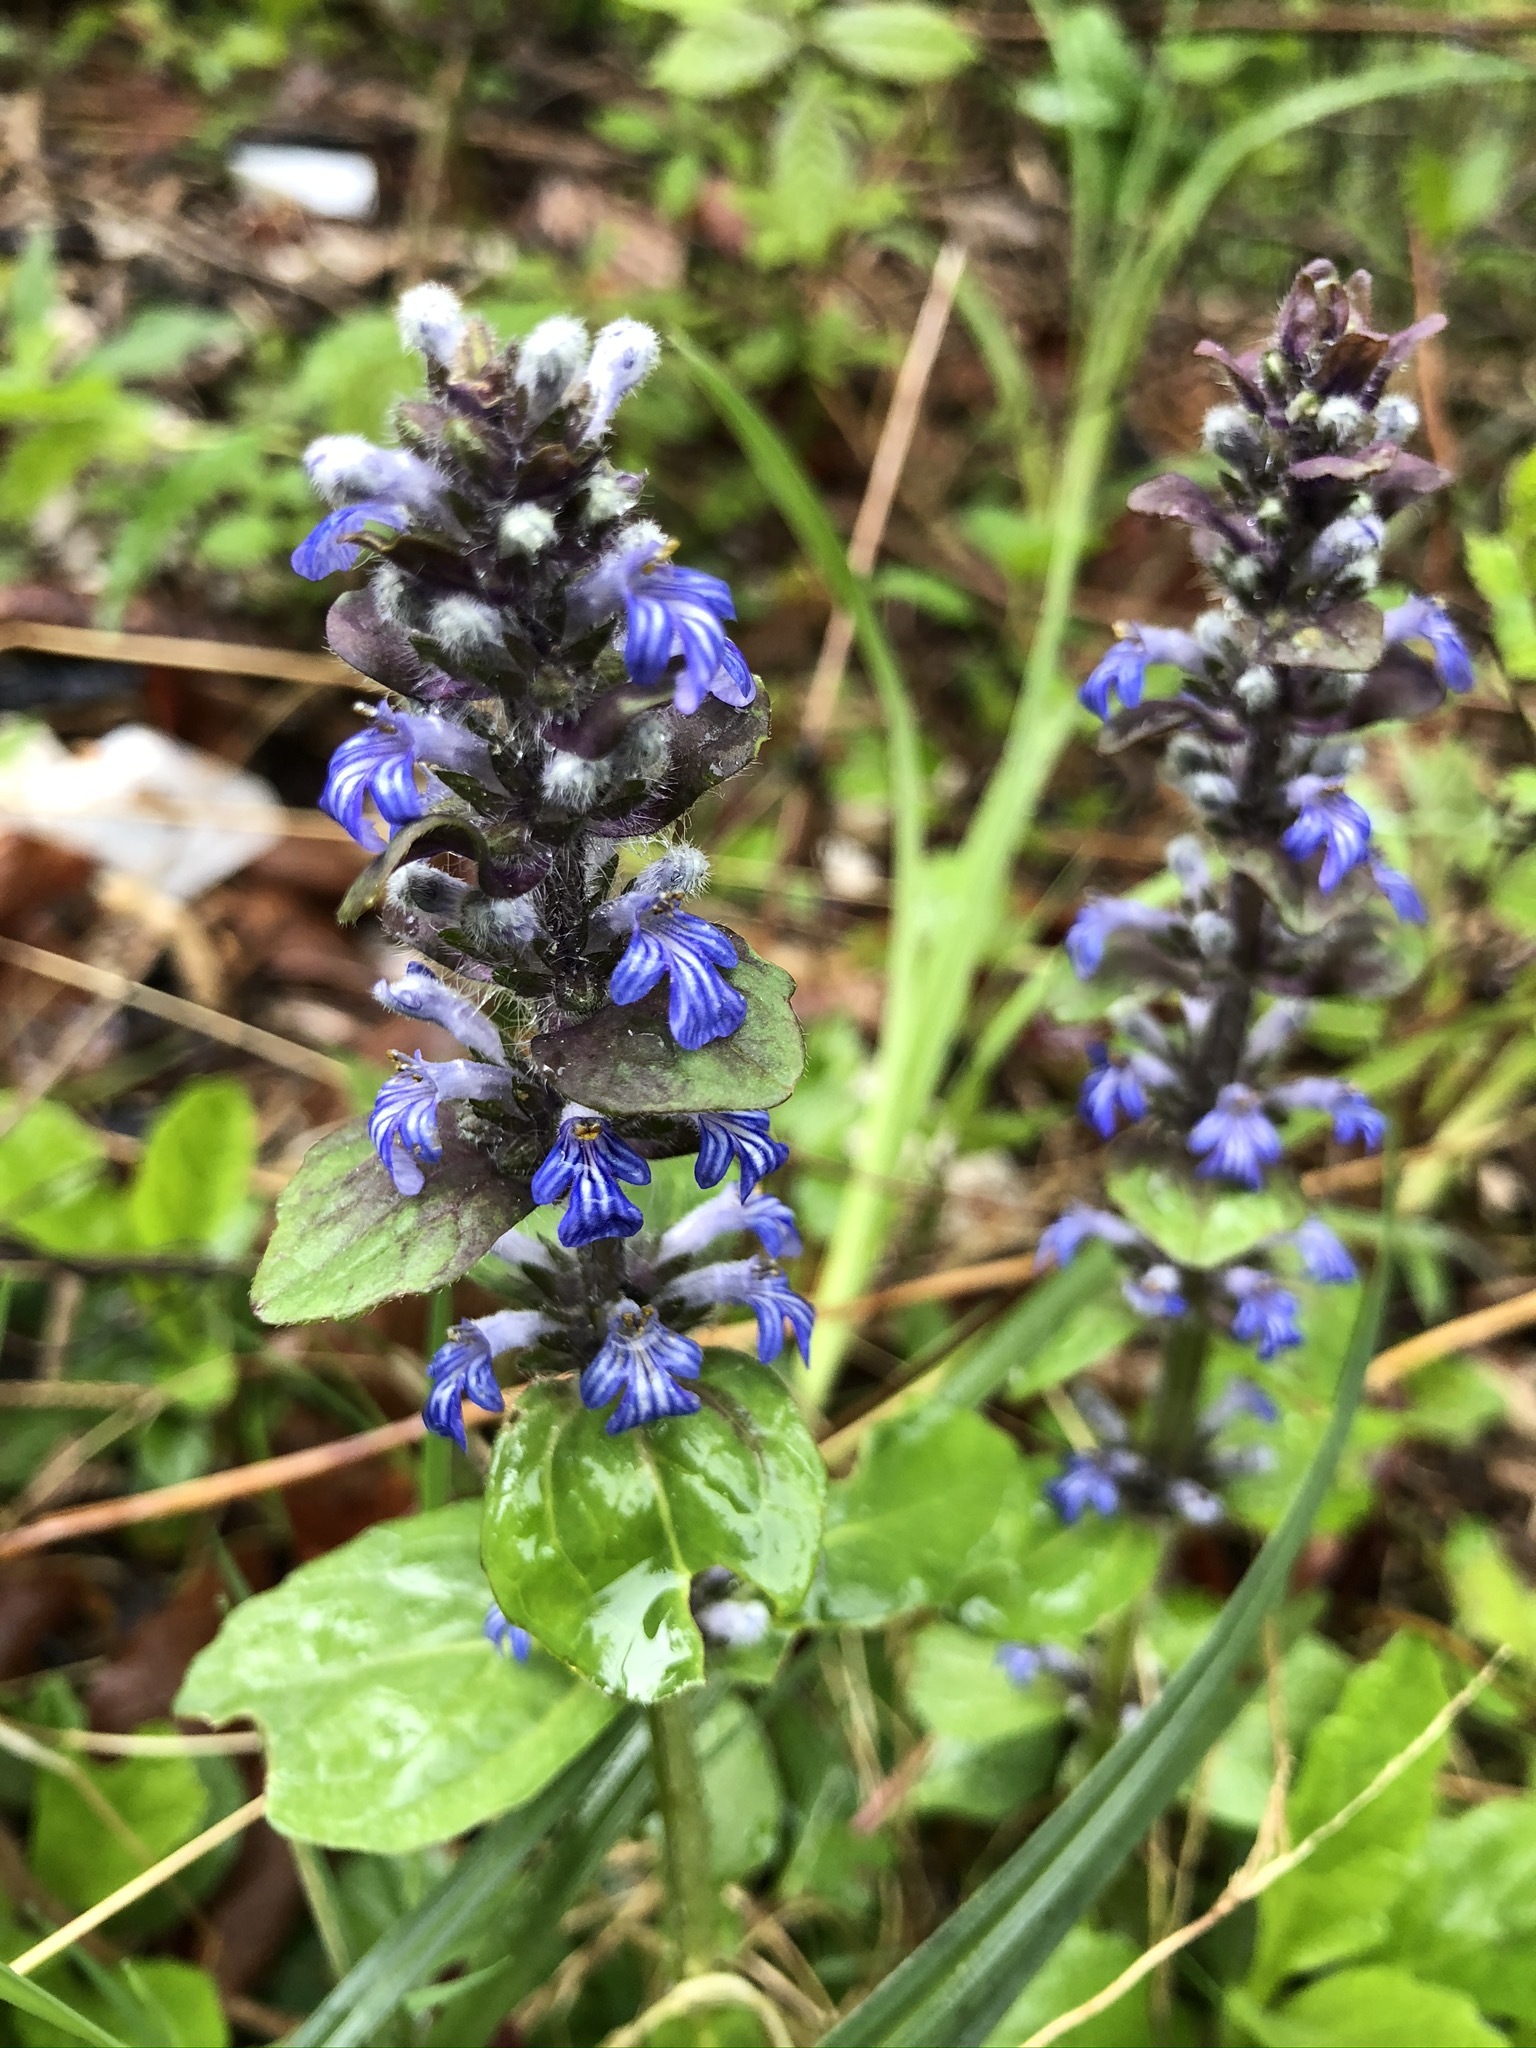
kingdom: Plantae
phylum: Tracheophyta
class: Magnoliopsida
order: Lamiales
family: Lamiaceae
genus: Ajuga
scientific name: Ajuga reptans
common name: Bugle
